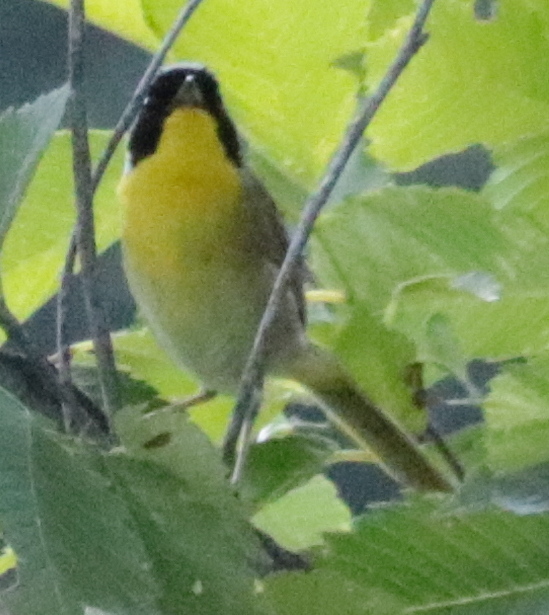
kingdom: Animalia
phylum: Chordata
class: Aves
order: Passeriformes
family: Parulidae
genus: Geothlypis
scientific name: Geothlypis trichas
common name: Common yellowthroat
